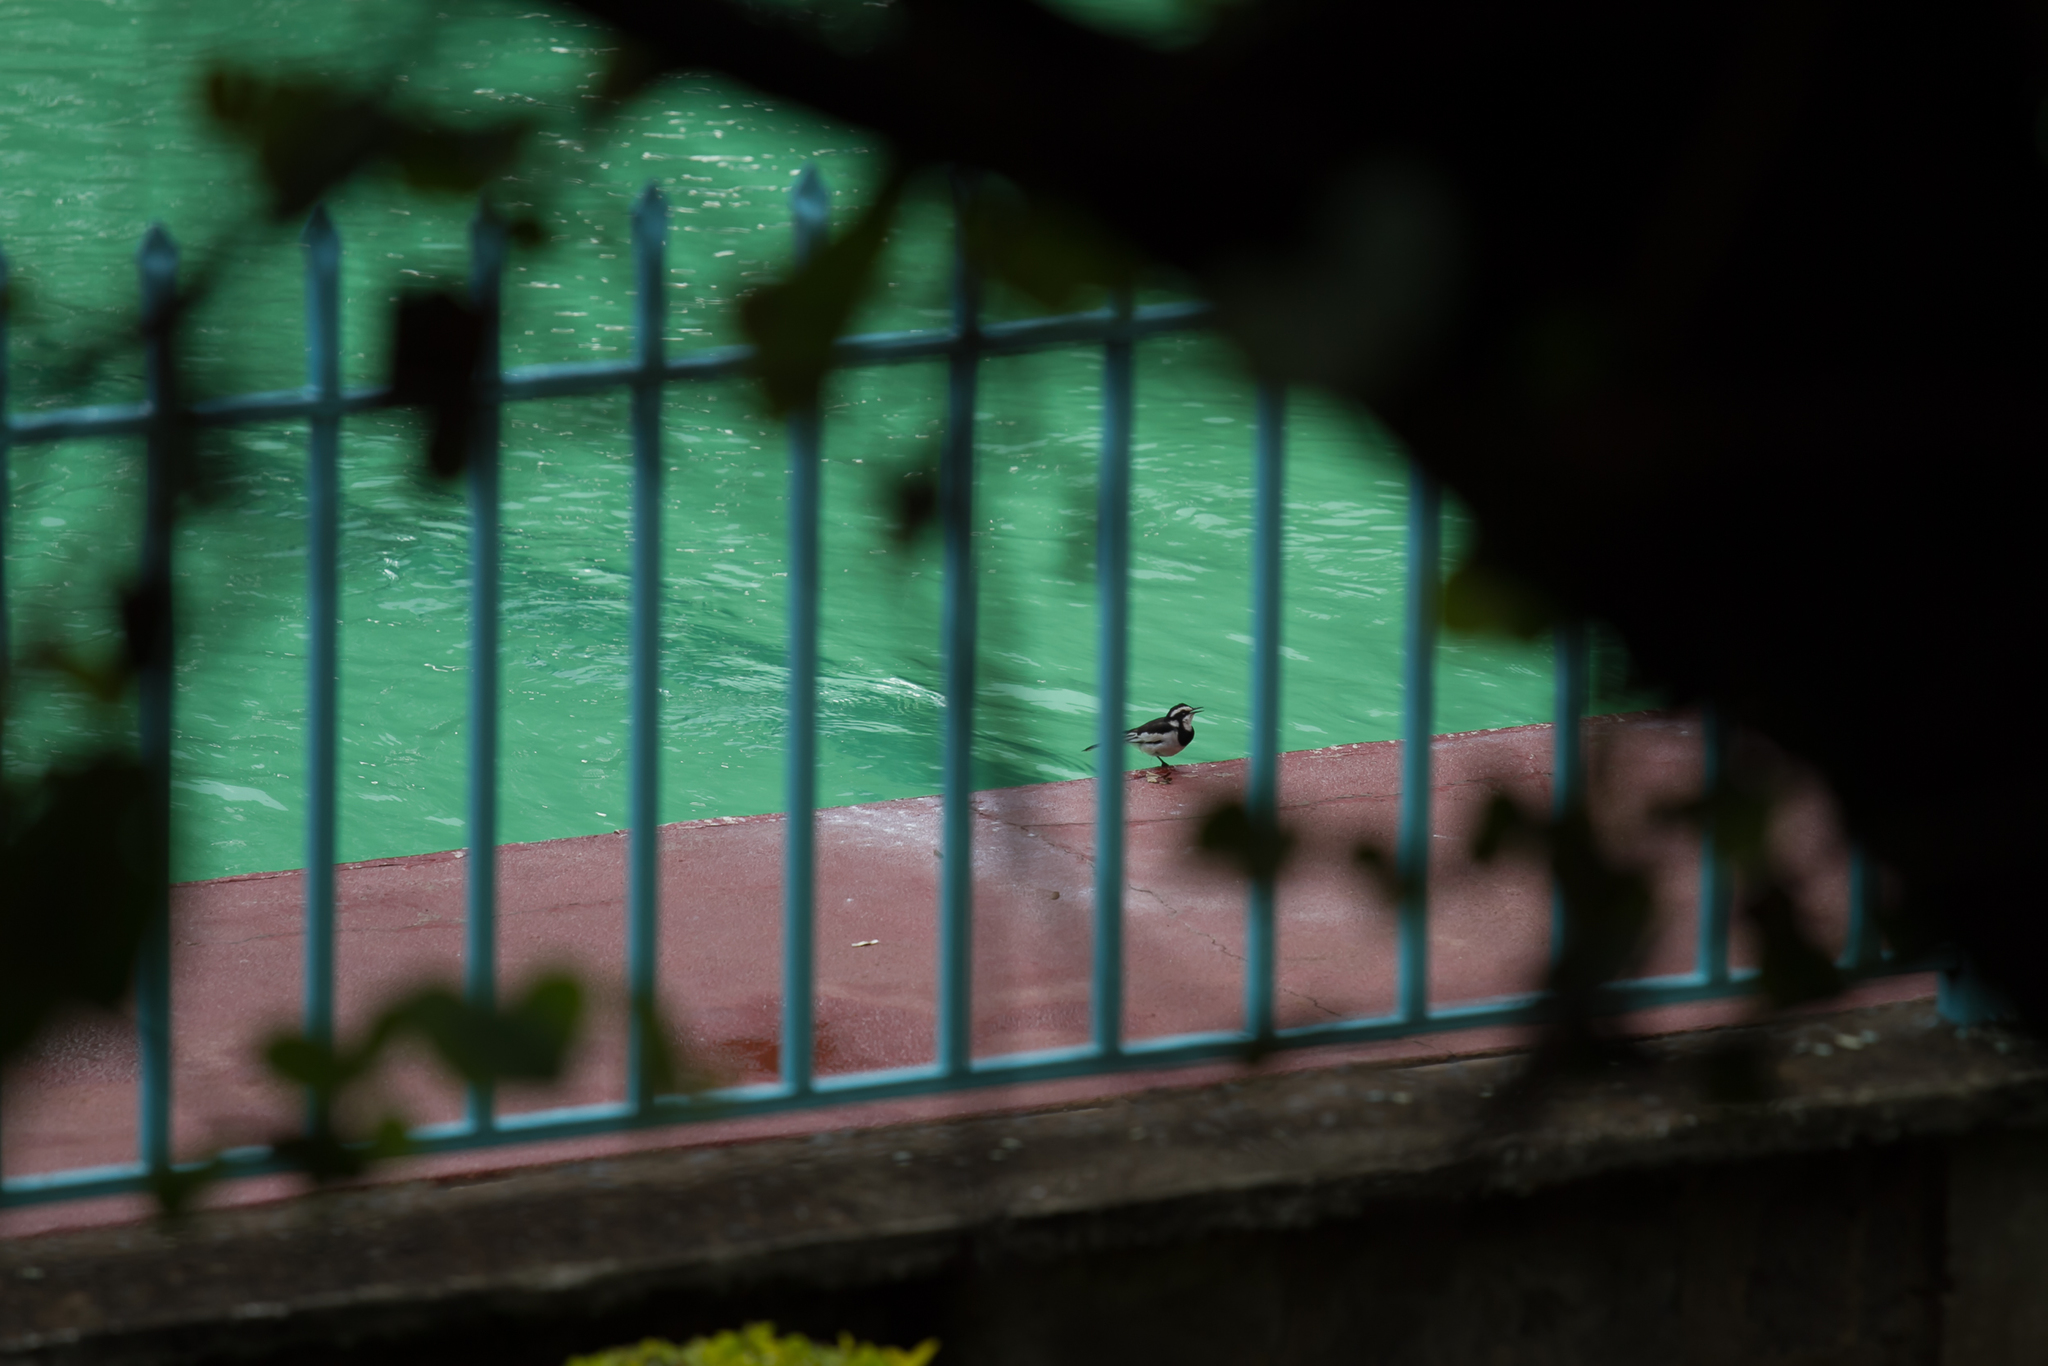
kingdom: Animalia
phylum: Chordata
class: Aves
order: Passeriformes
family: Motacillidae
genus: Motacilla
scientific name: Motacilla aguimp
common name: African pied wagtail
